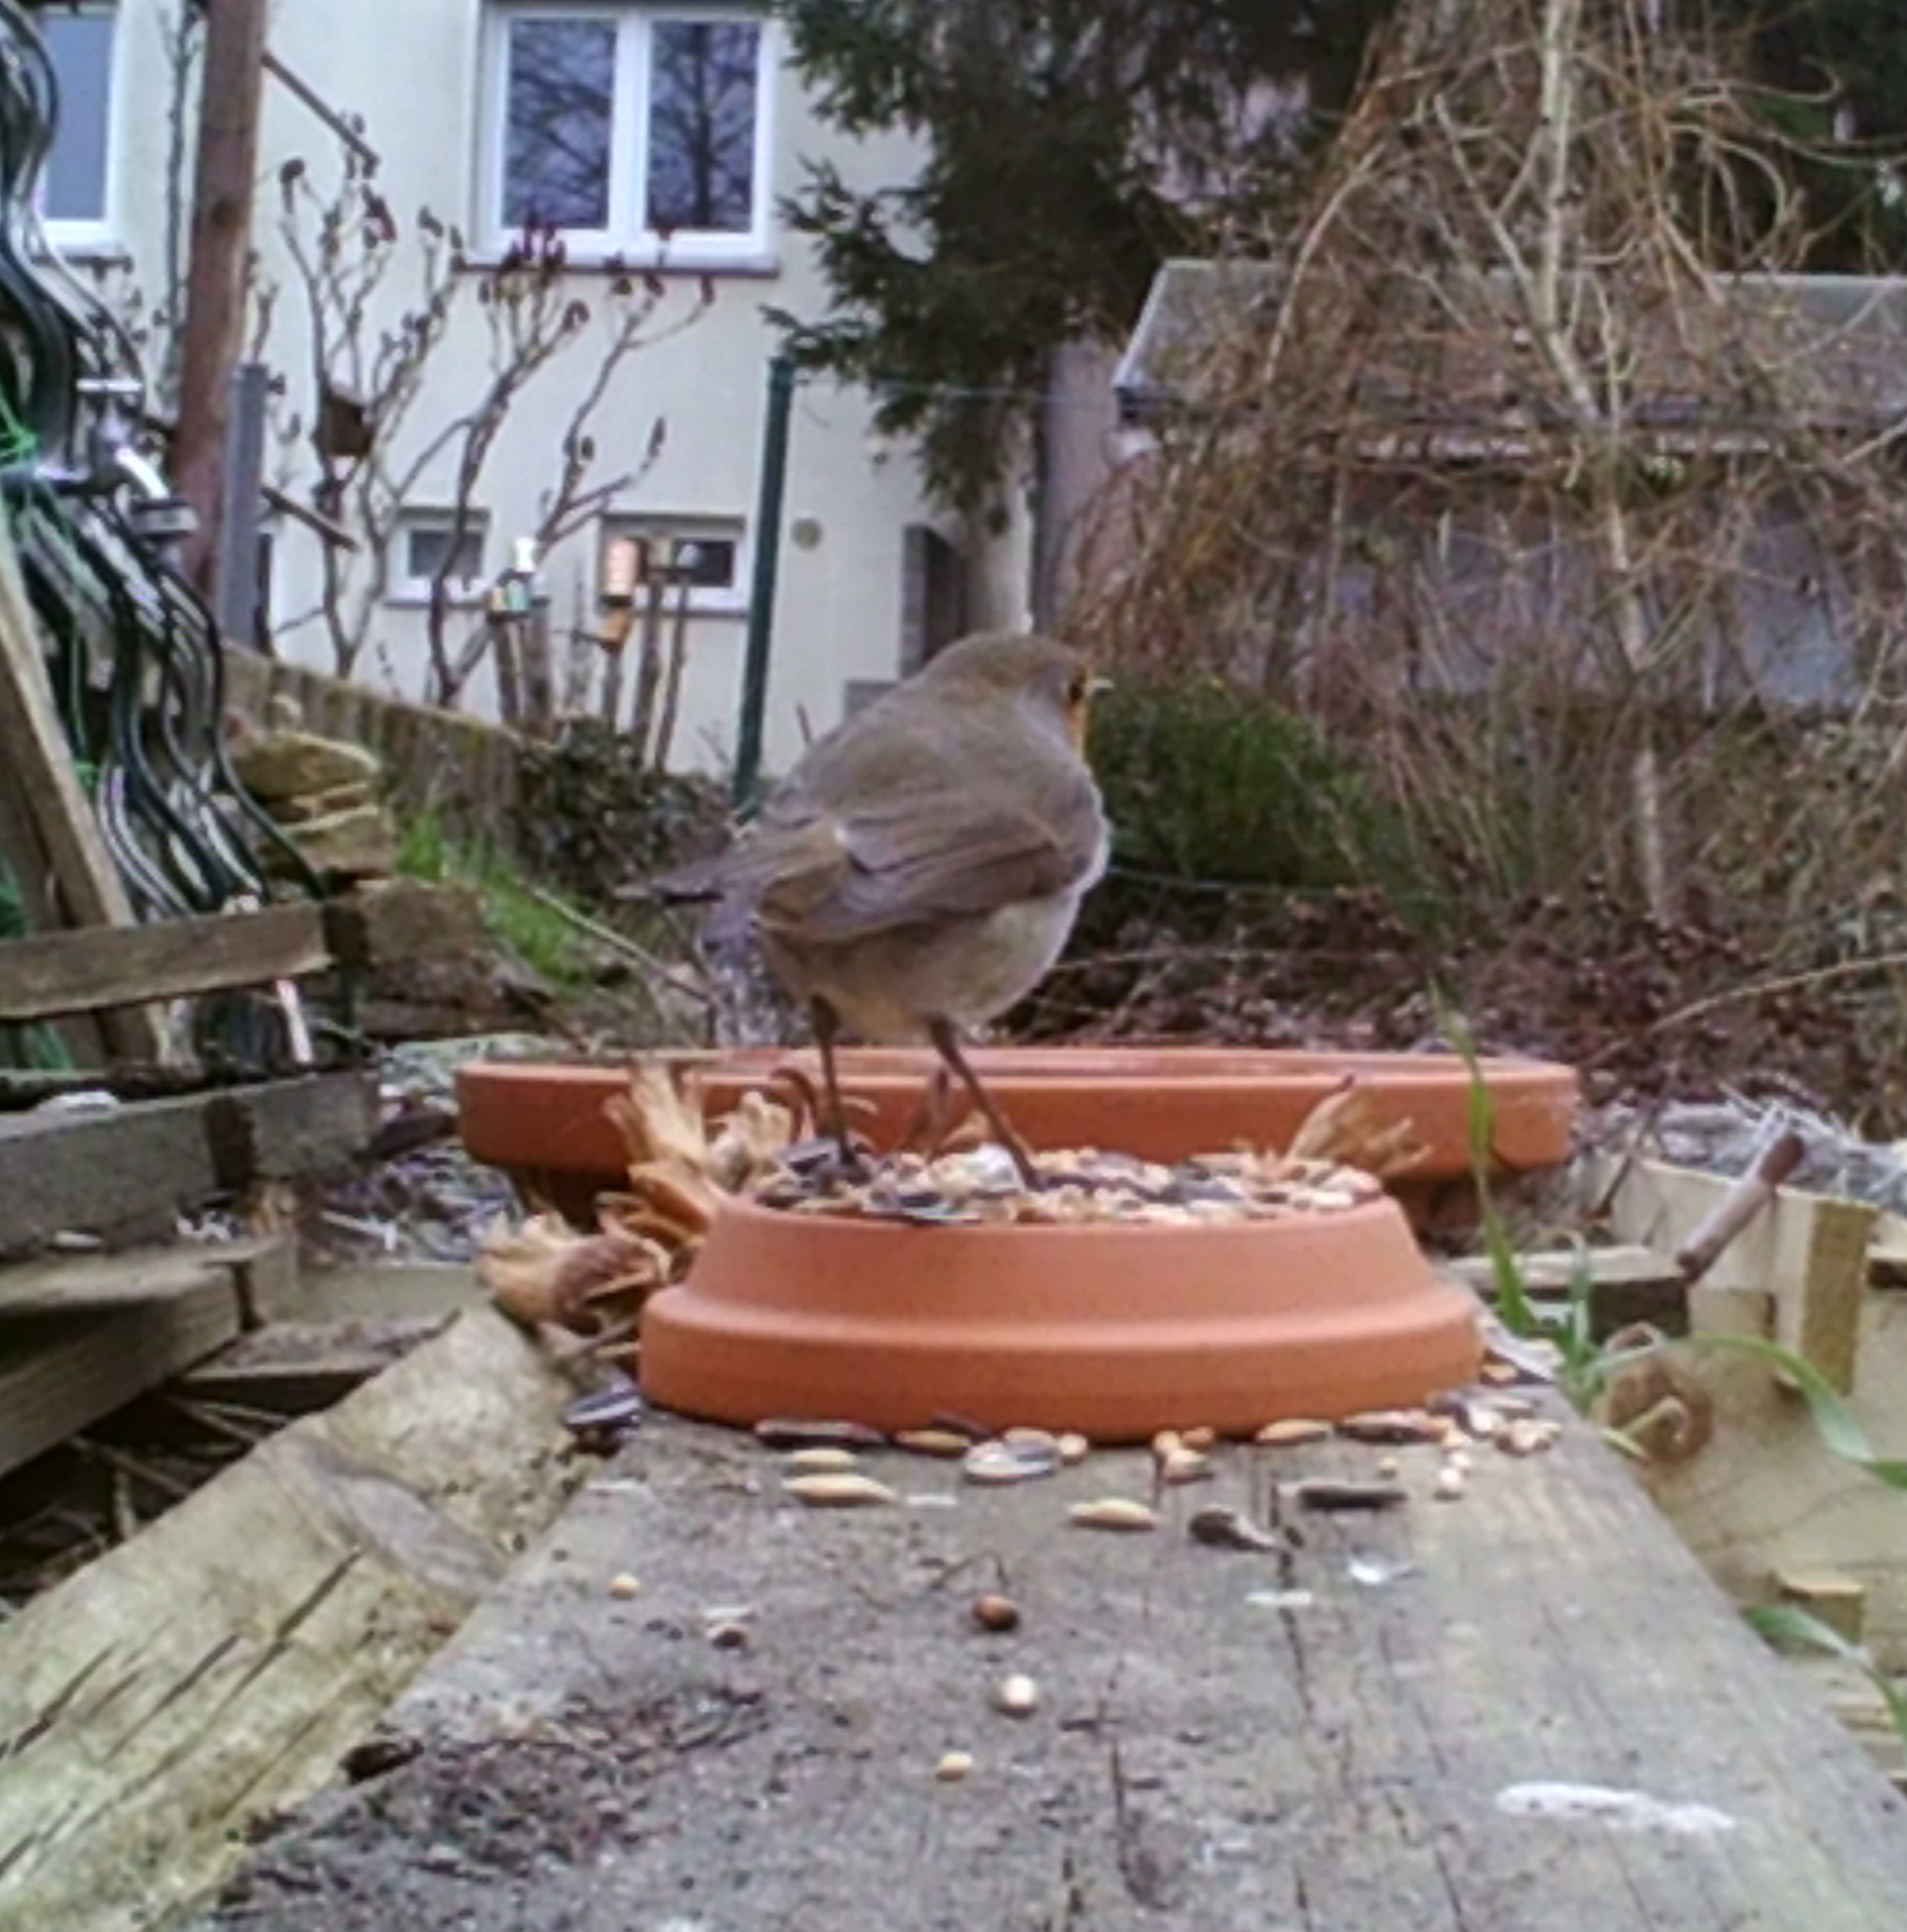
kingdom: Animalia
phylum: Chordata
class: Aves
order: Passeriformes
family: Muscicapidae
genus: Erithacus
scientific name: Erithacus rubecula
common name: European robin
